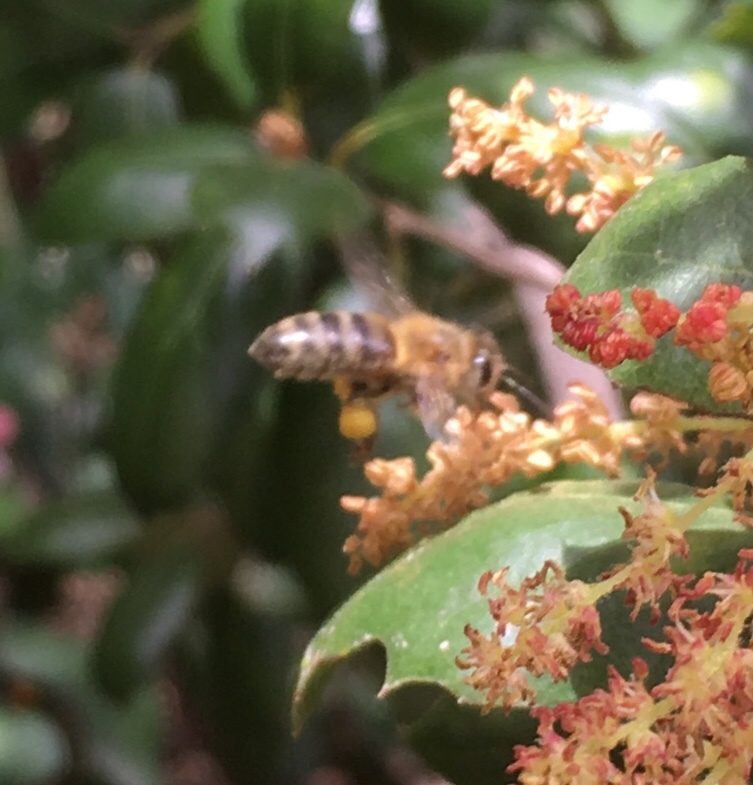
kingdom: Animalia
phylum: Arthropoda
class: Insecta
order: Hymenoptera
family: Apidae
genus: Apis
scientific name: Apis mellifera
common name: Honey bee
